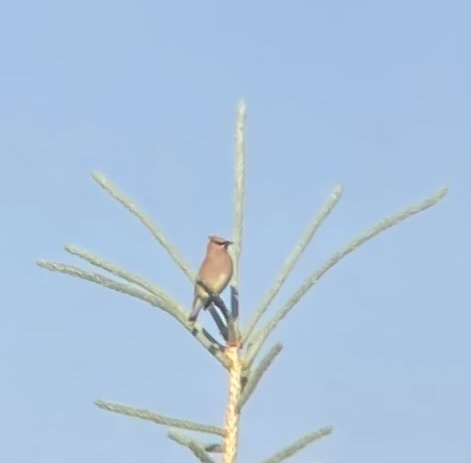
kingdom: Animalia
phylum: Chordata
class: Aves
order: Passeriformes
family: Bombycillidae
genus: Bombycilla
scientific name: Bombycilla cedrorum
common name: Cedar waxwing
